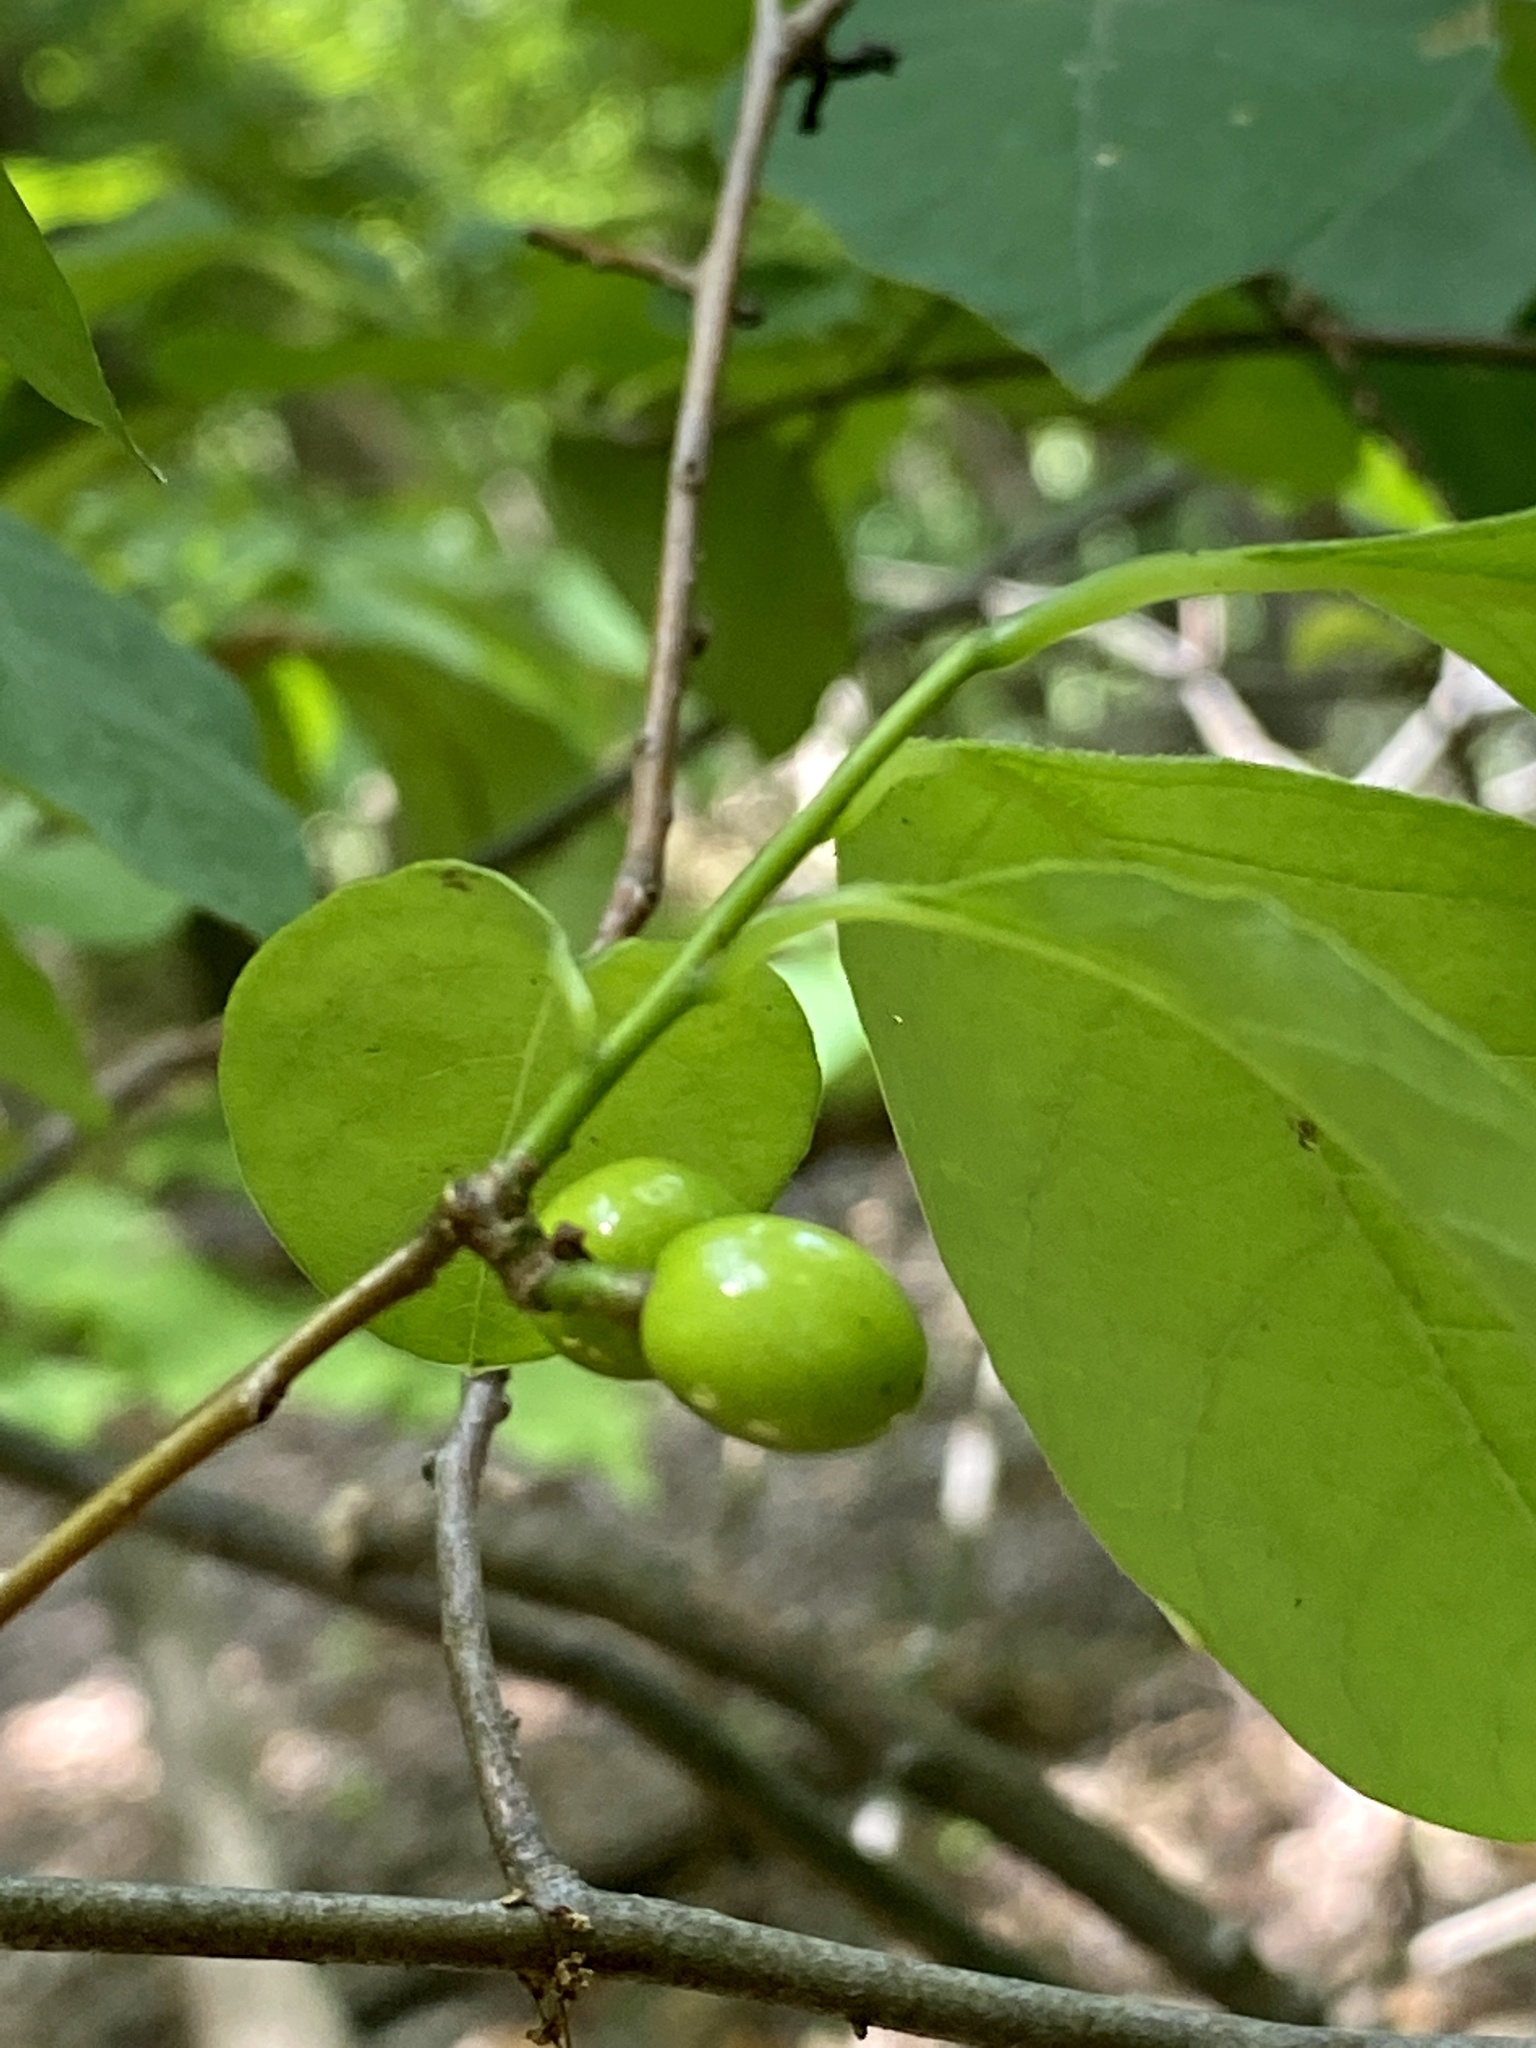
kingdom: Plantae
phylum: Tracheophyta
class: Magnoliopsida
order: Laurales
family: Lauraceae
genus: Lindera
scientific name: Lindera benzoin
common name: Spicebush
